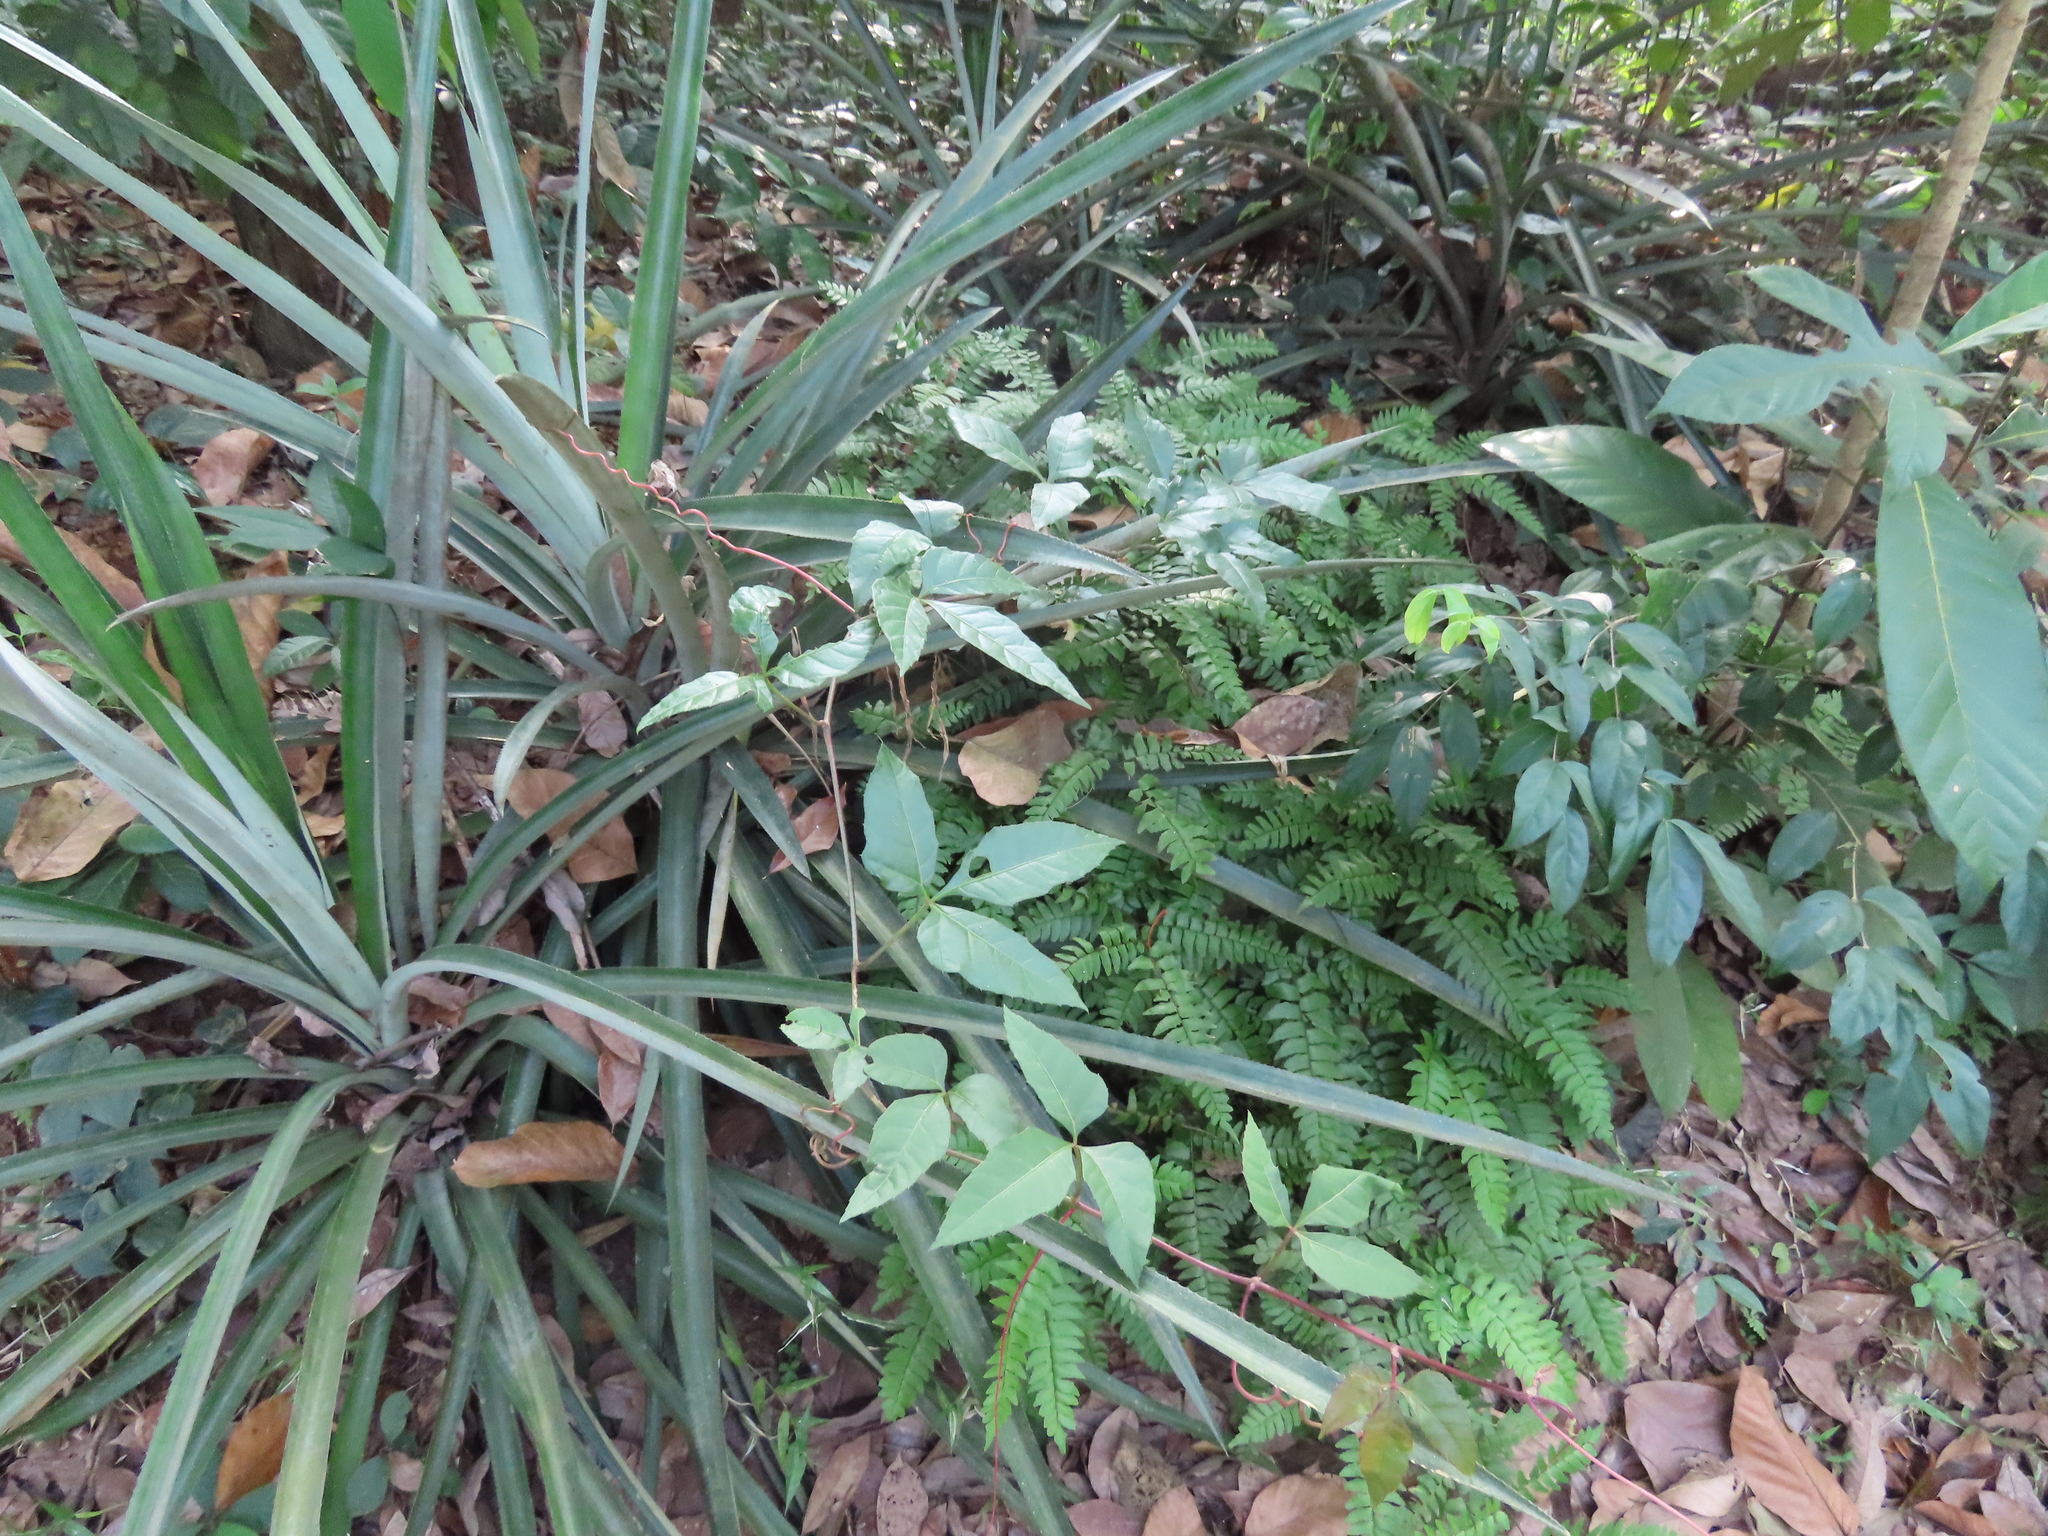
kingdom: Plantae
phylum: Tracheophyta
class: Polypodiopsida
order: Polypodiales
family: Pteridaceae
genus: Adiantum
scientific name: Adiantum latifolium
